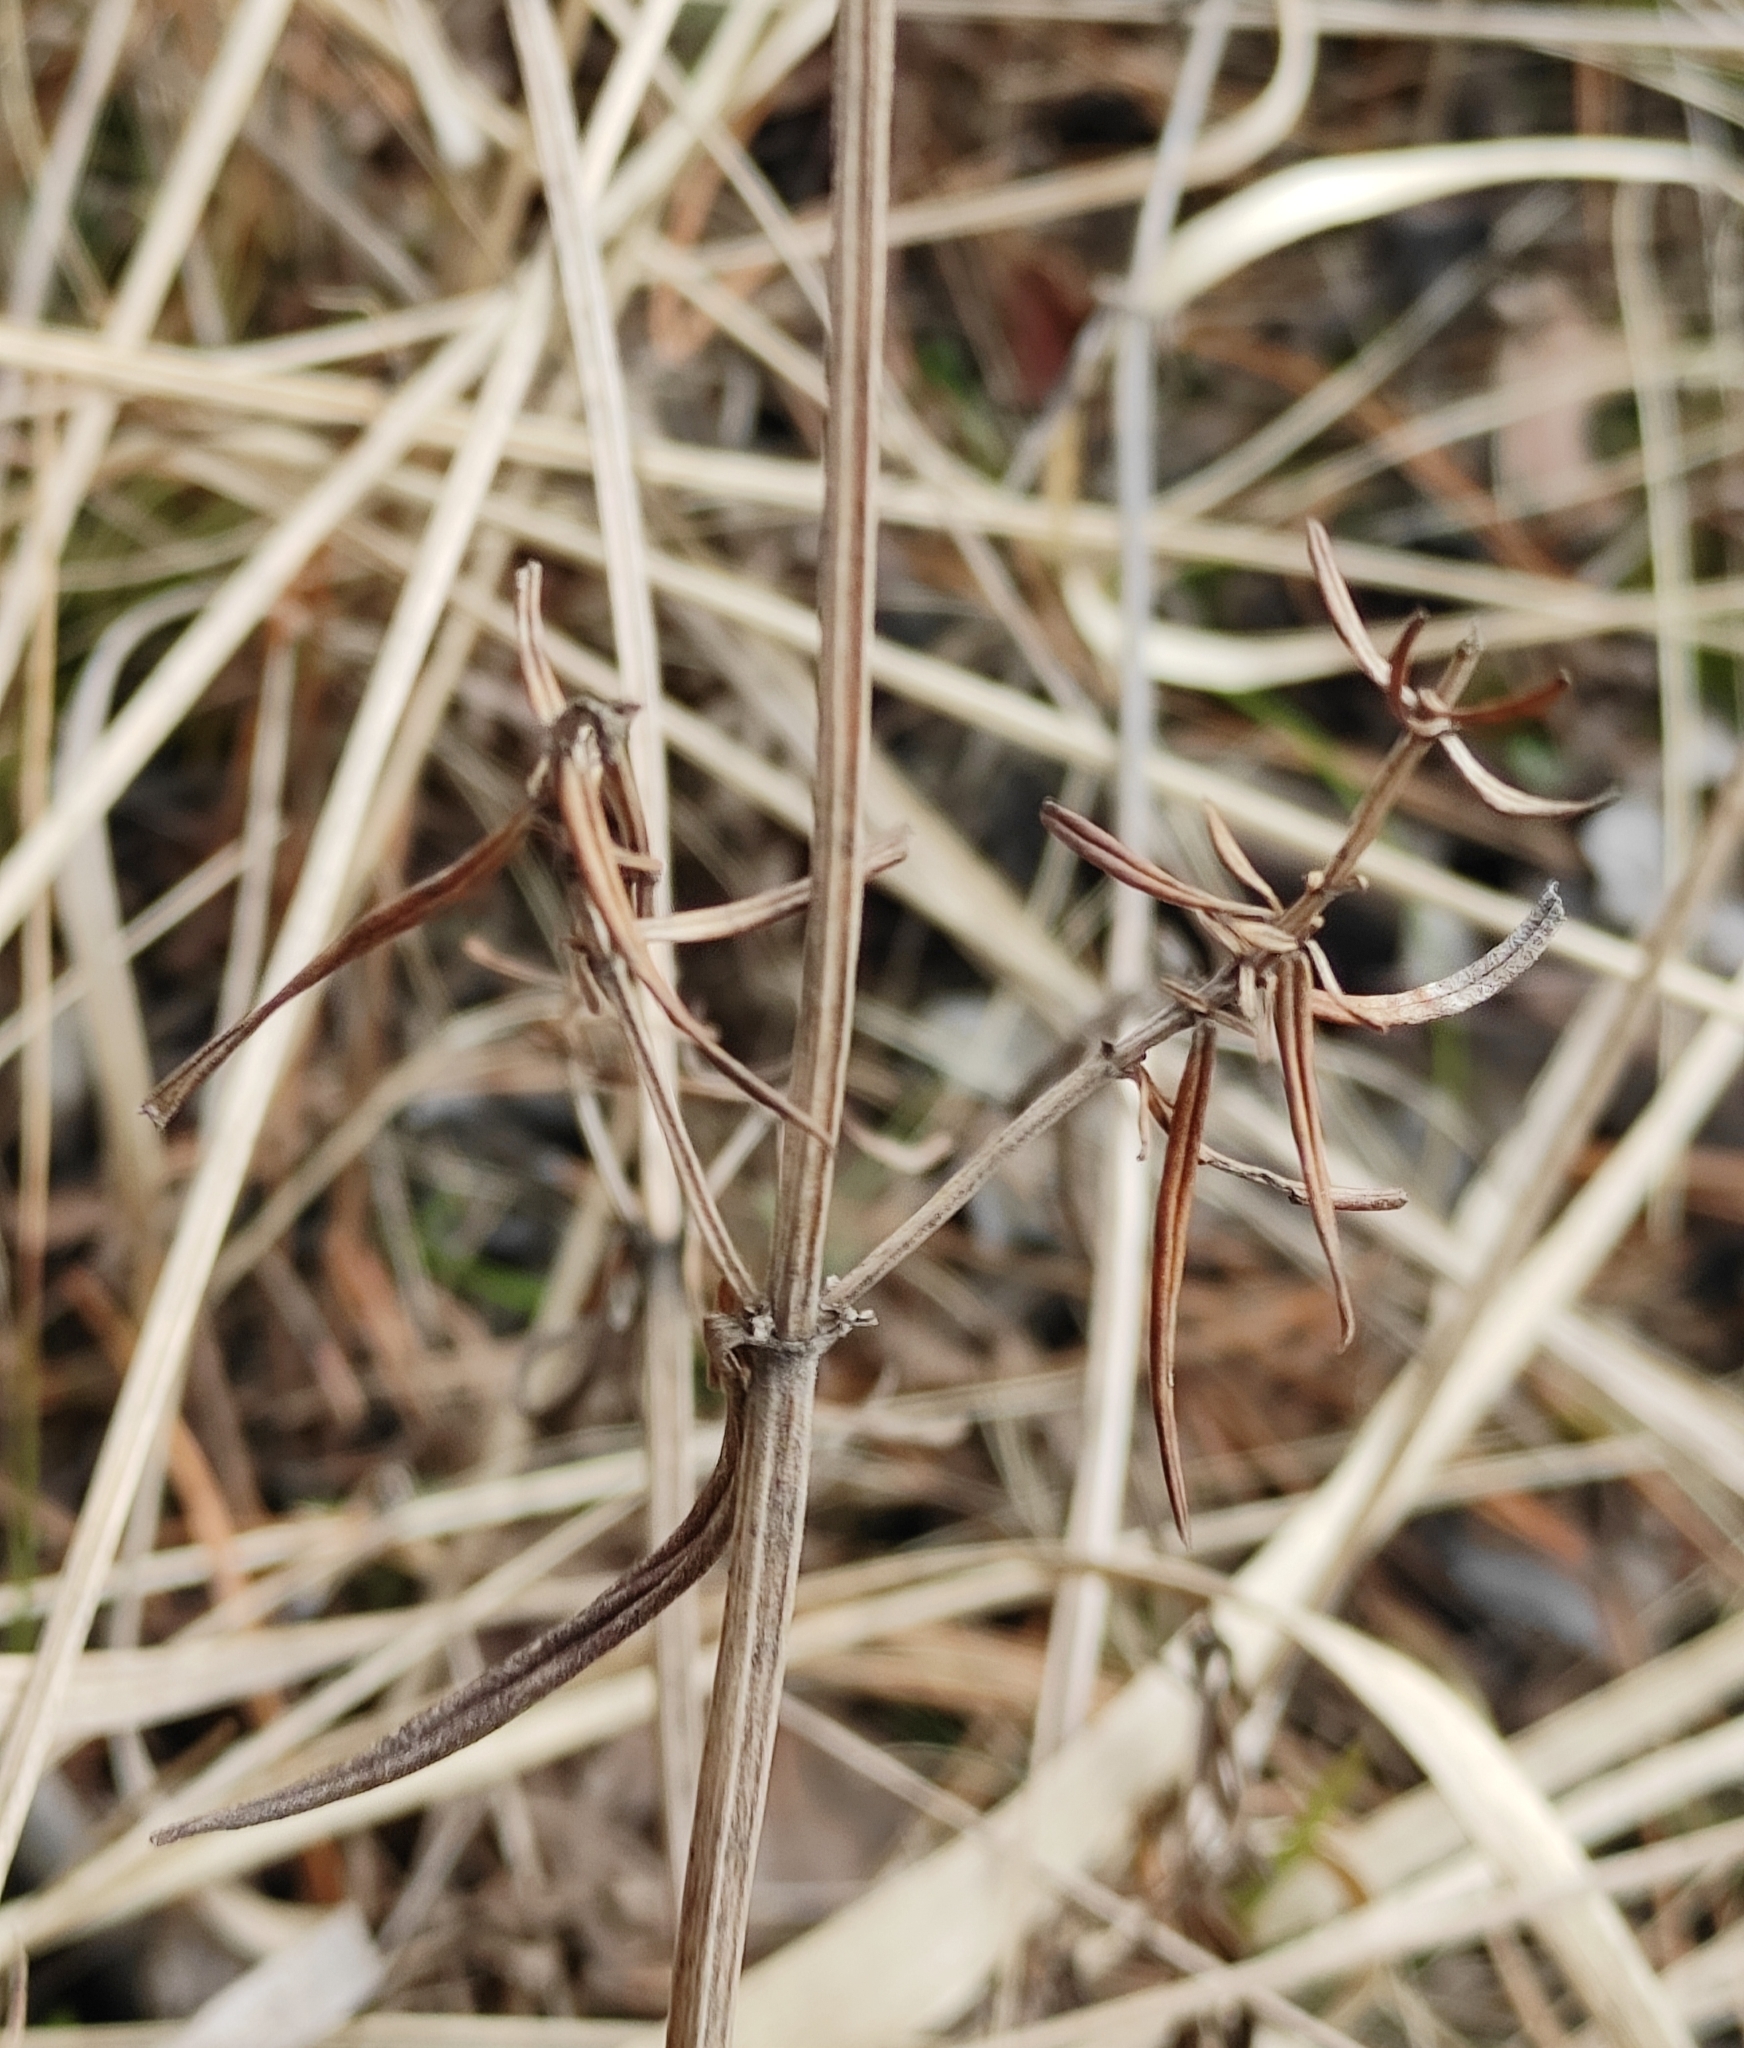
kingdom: Plantae
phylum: Tracheophyta
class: Magnoliopsida
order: Lamiales
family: Lamiaceae
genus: Dracocephalum
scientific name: Dracocephalum ruyschiana
